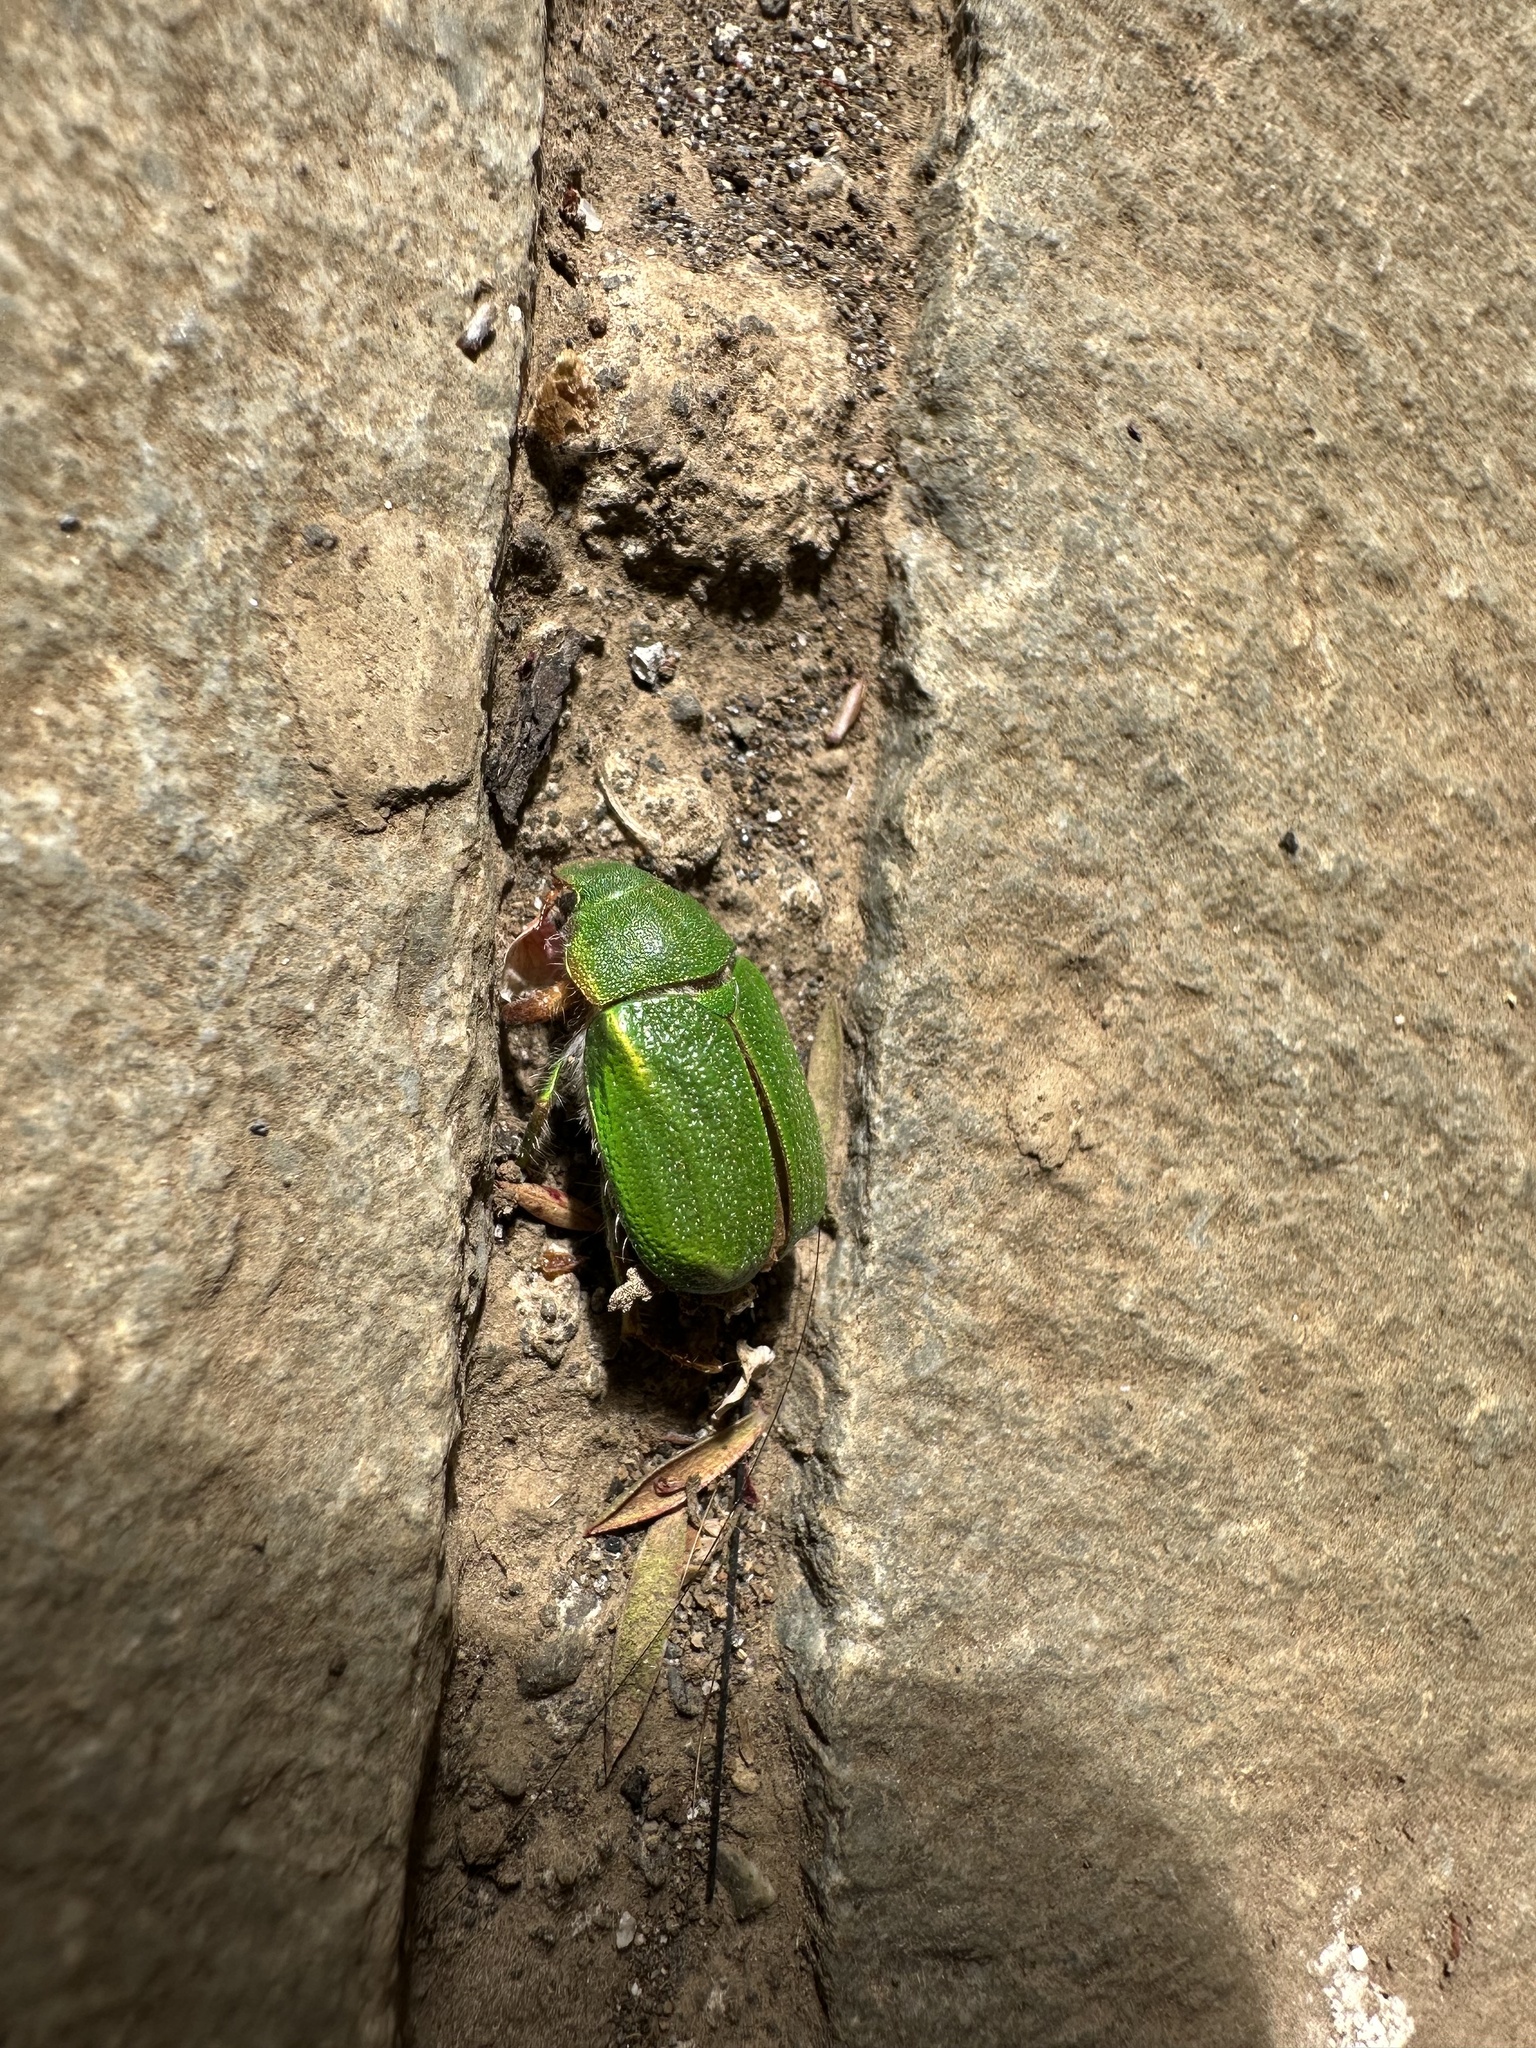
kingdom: Animalia
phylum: Arthropoda
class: Insecta
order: Coleoptera
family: Scarabaeidae
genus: Hylamorpha
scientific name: Hylamorpha elegans
